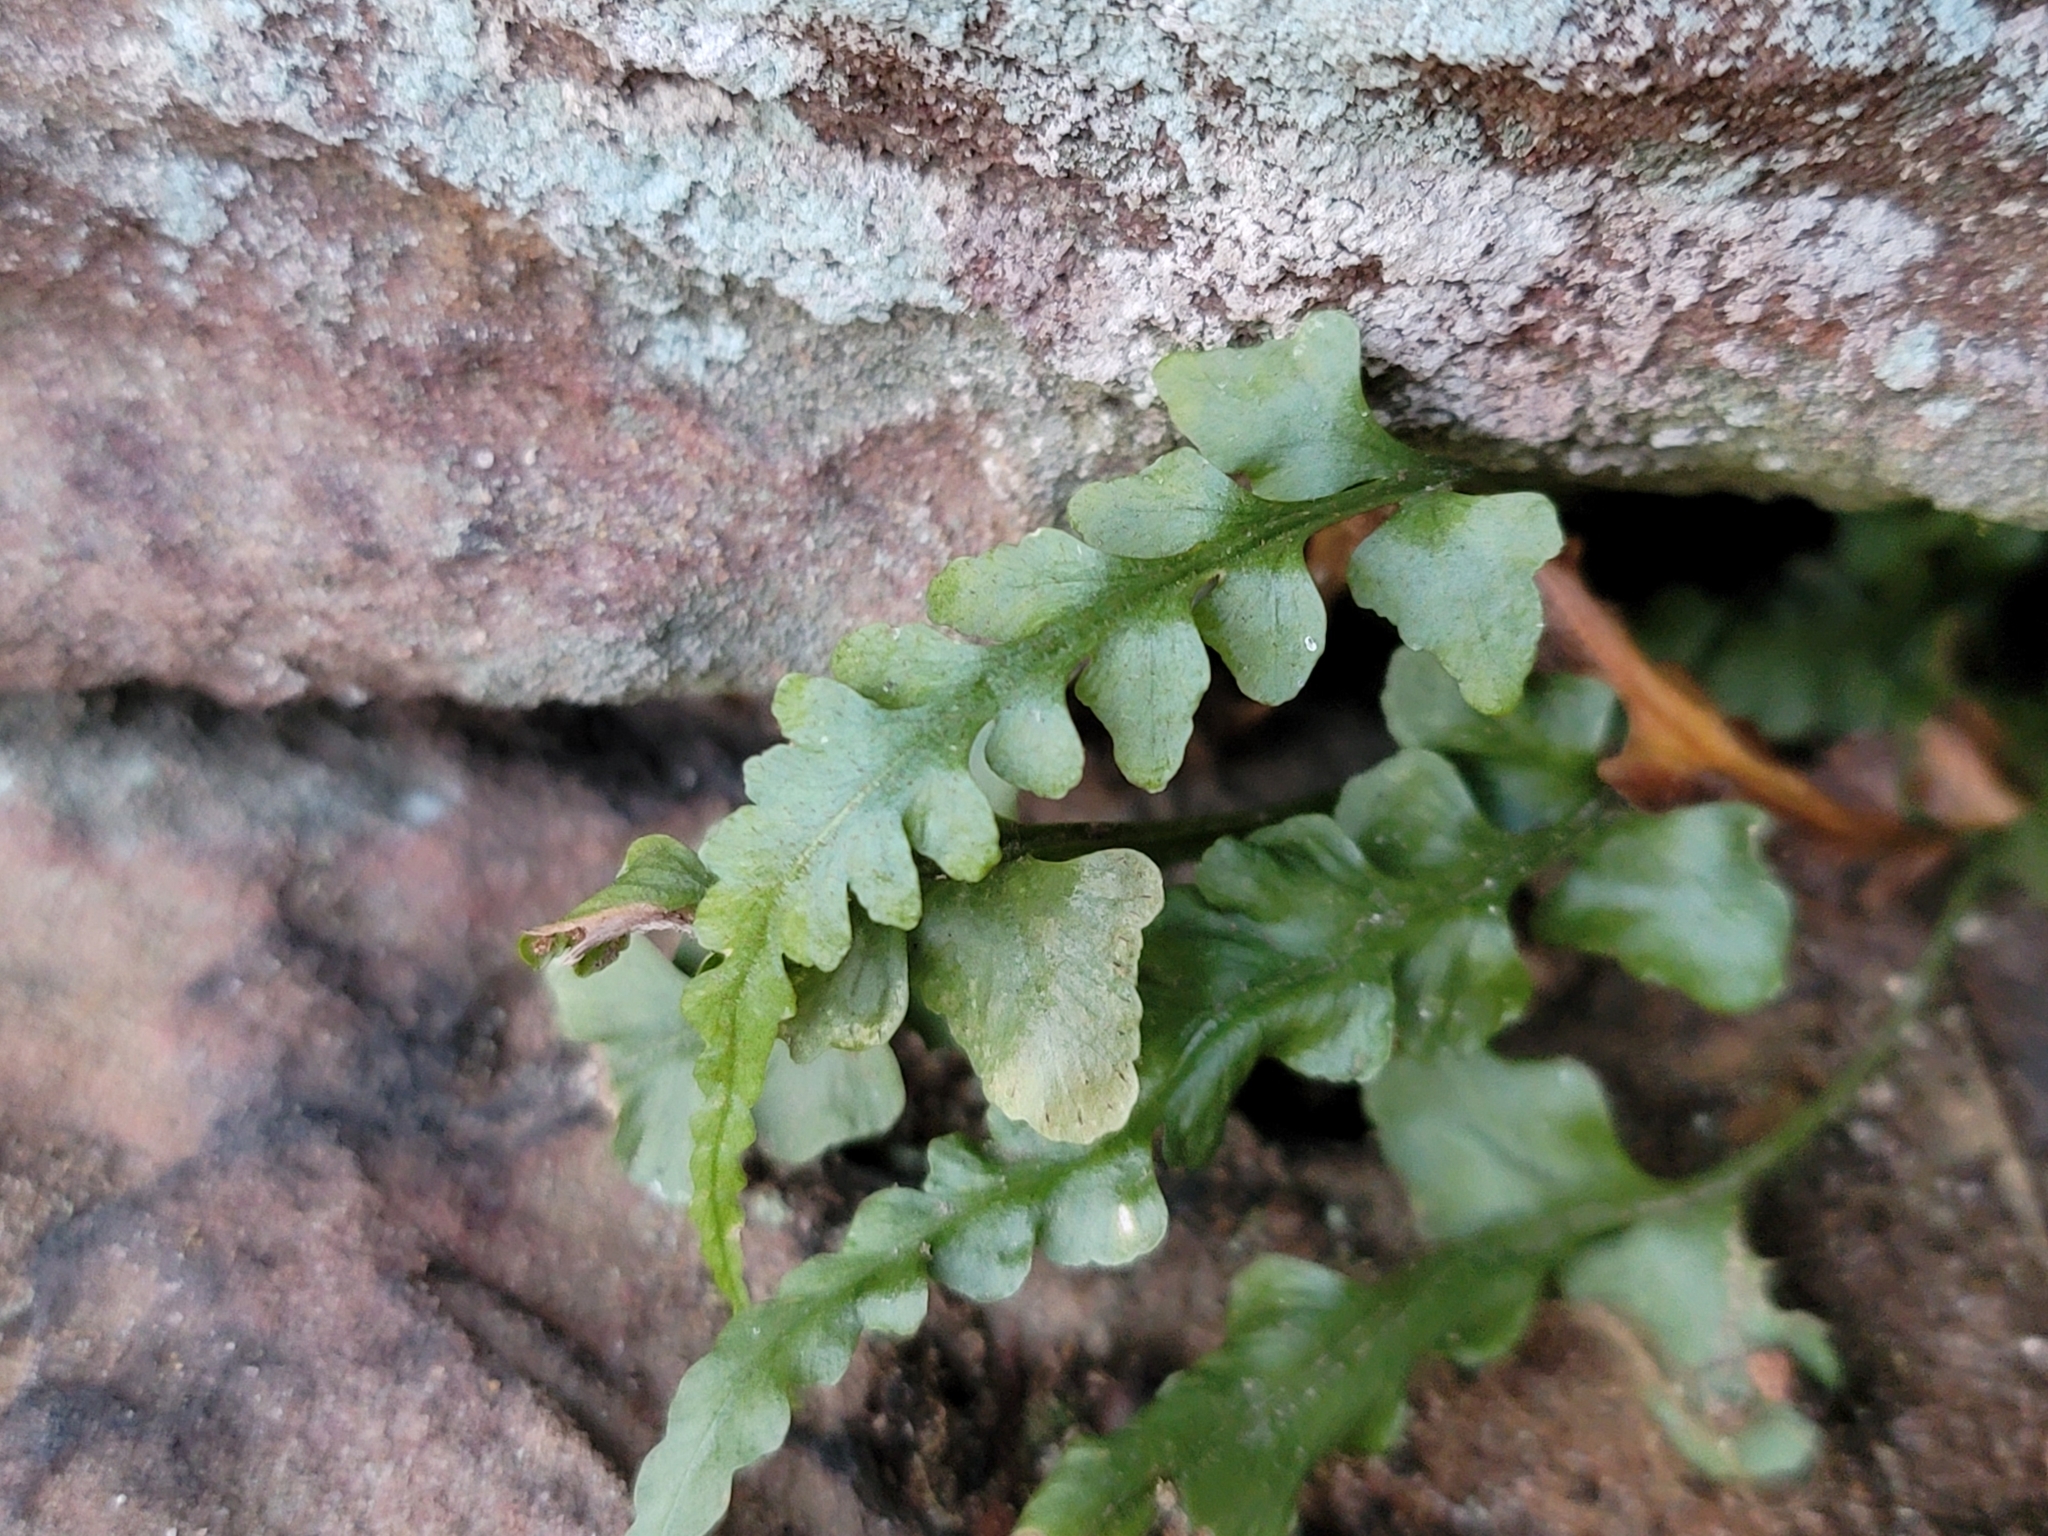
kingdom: Plantae
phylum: Tracheophyta
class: Polypodiopsida
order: Polypodiales
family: Aspleniaceae
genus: Asplenium
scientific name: Asplenium pinnatifidum
